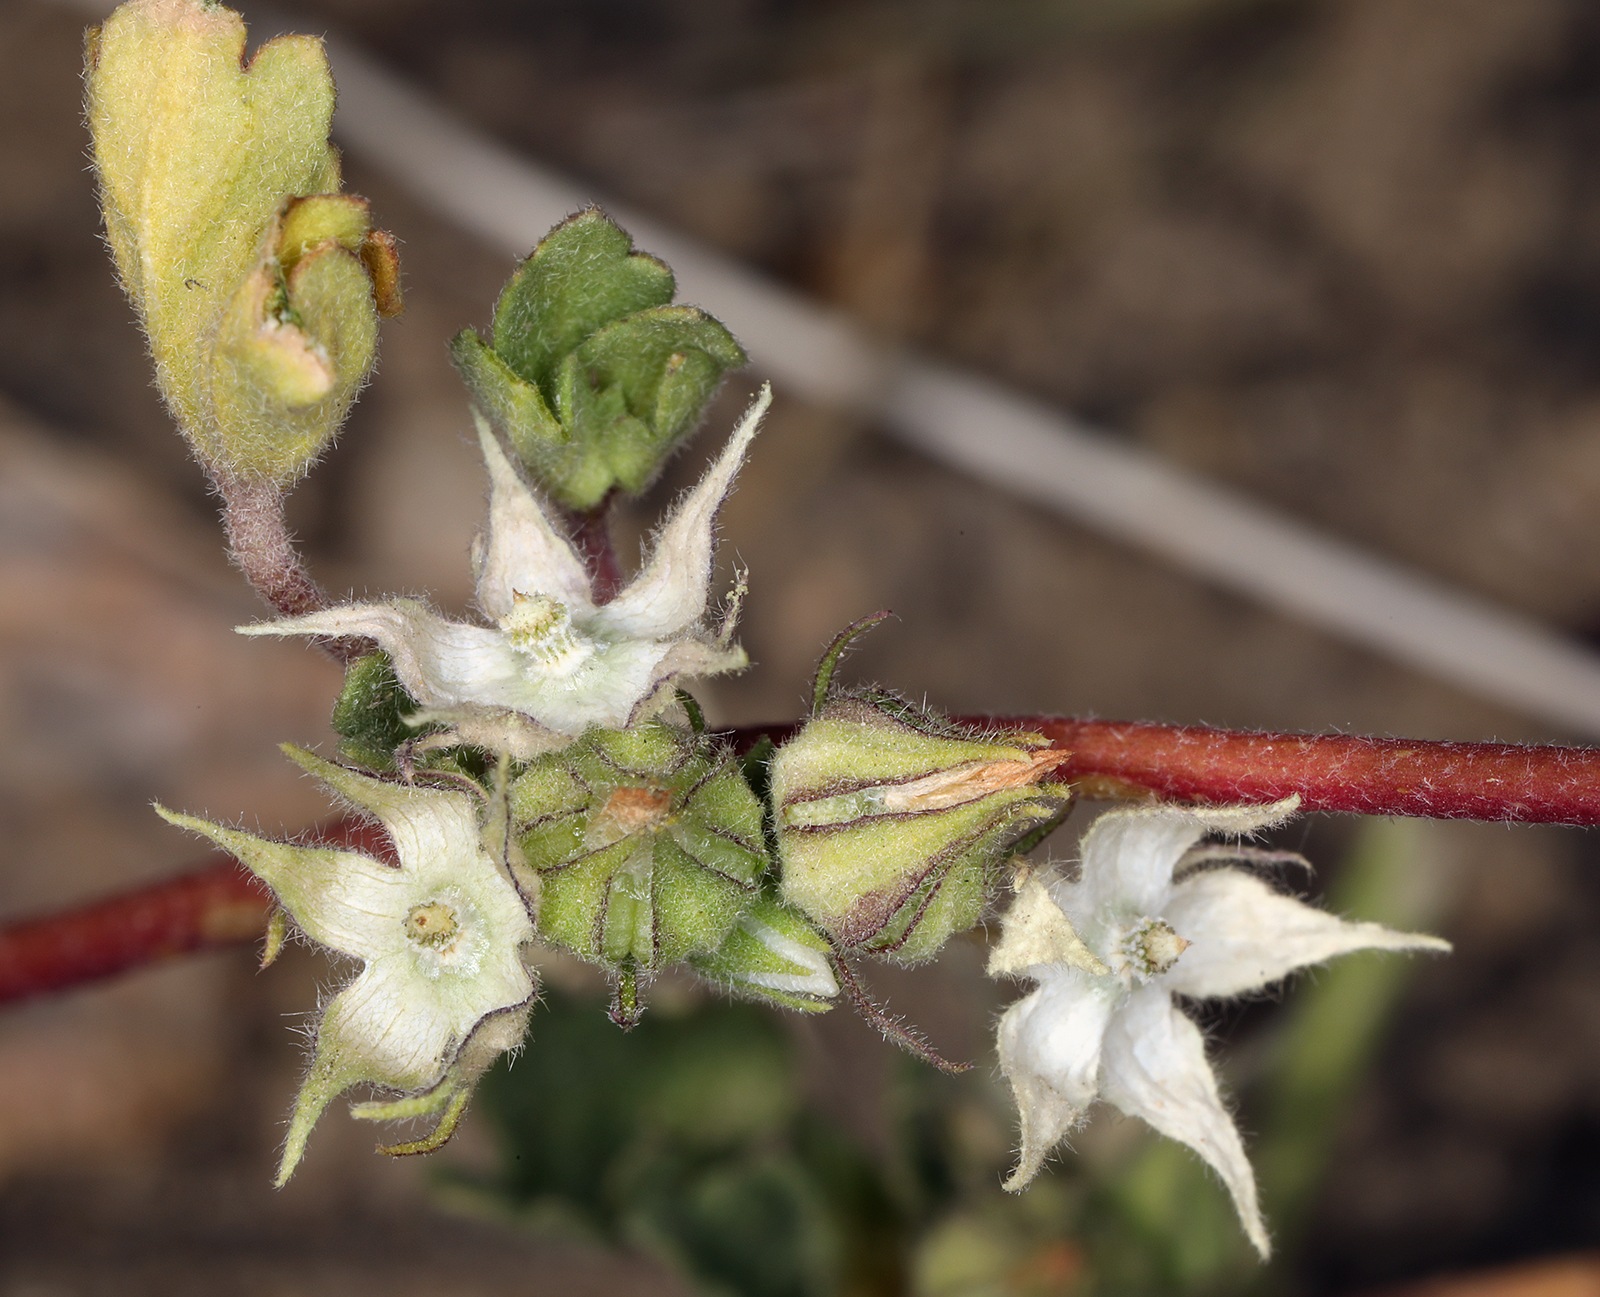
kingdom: Plantae
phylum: Tracheophyta
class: Magnoliopsida
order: Malvales
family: Malvaceae
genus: Eremalche
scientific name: Eremalche exilis
